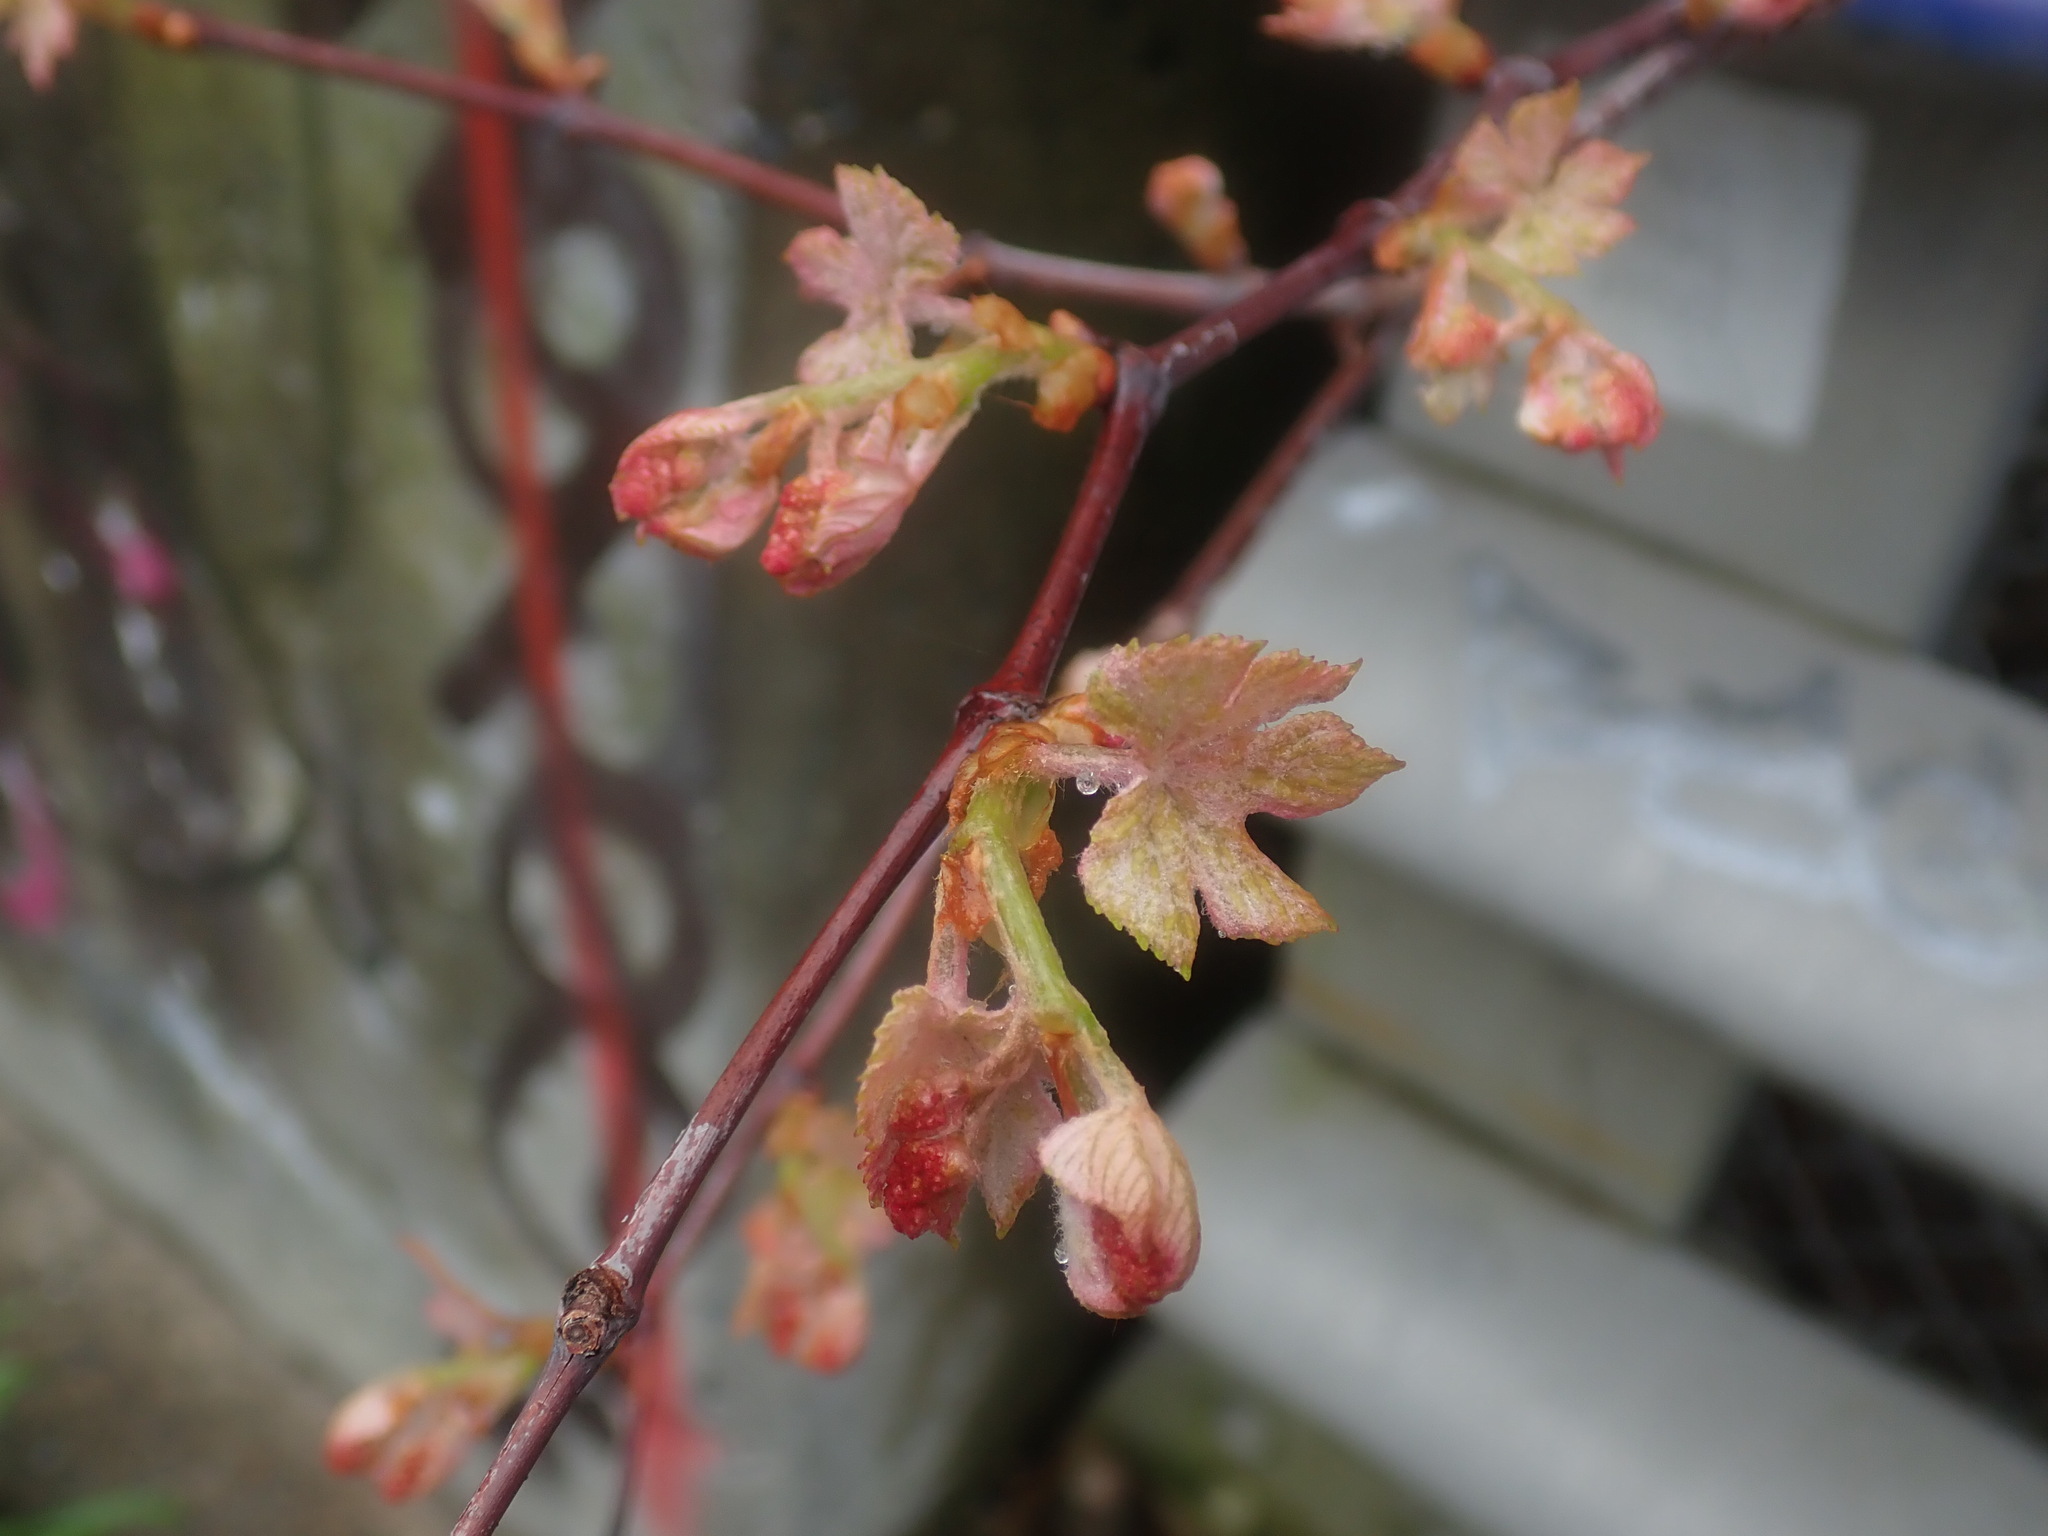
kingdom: Plantae
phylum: Tracheophyta
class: Magnoliopsida
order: Vitales
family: Vitaceae
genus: Vitis
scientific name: Vitis
